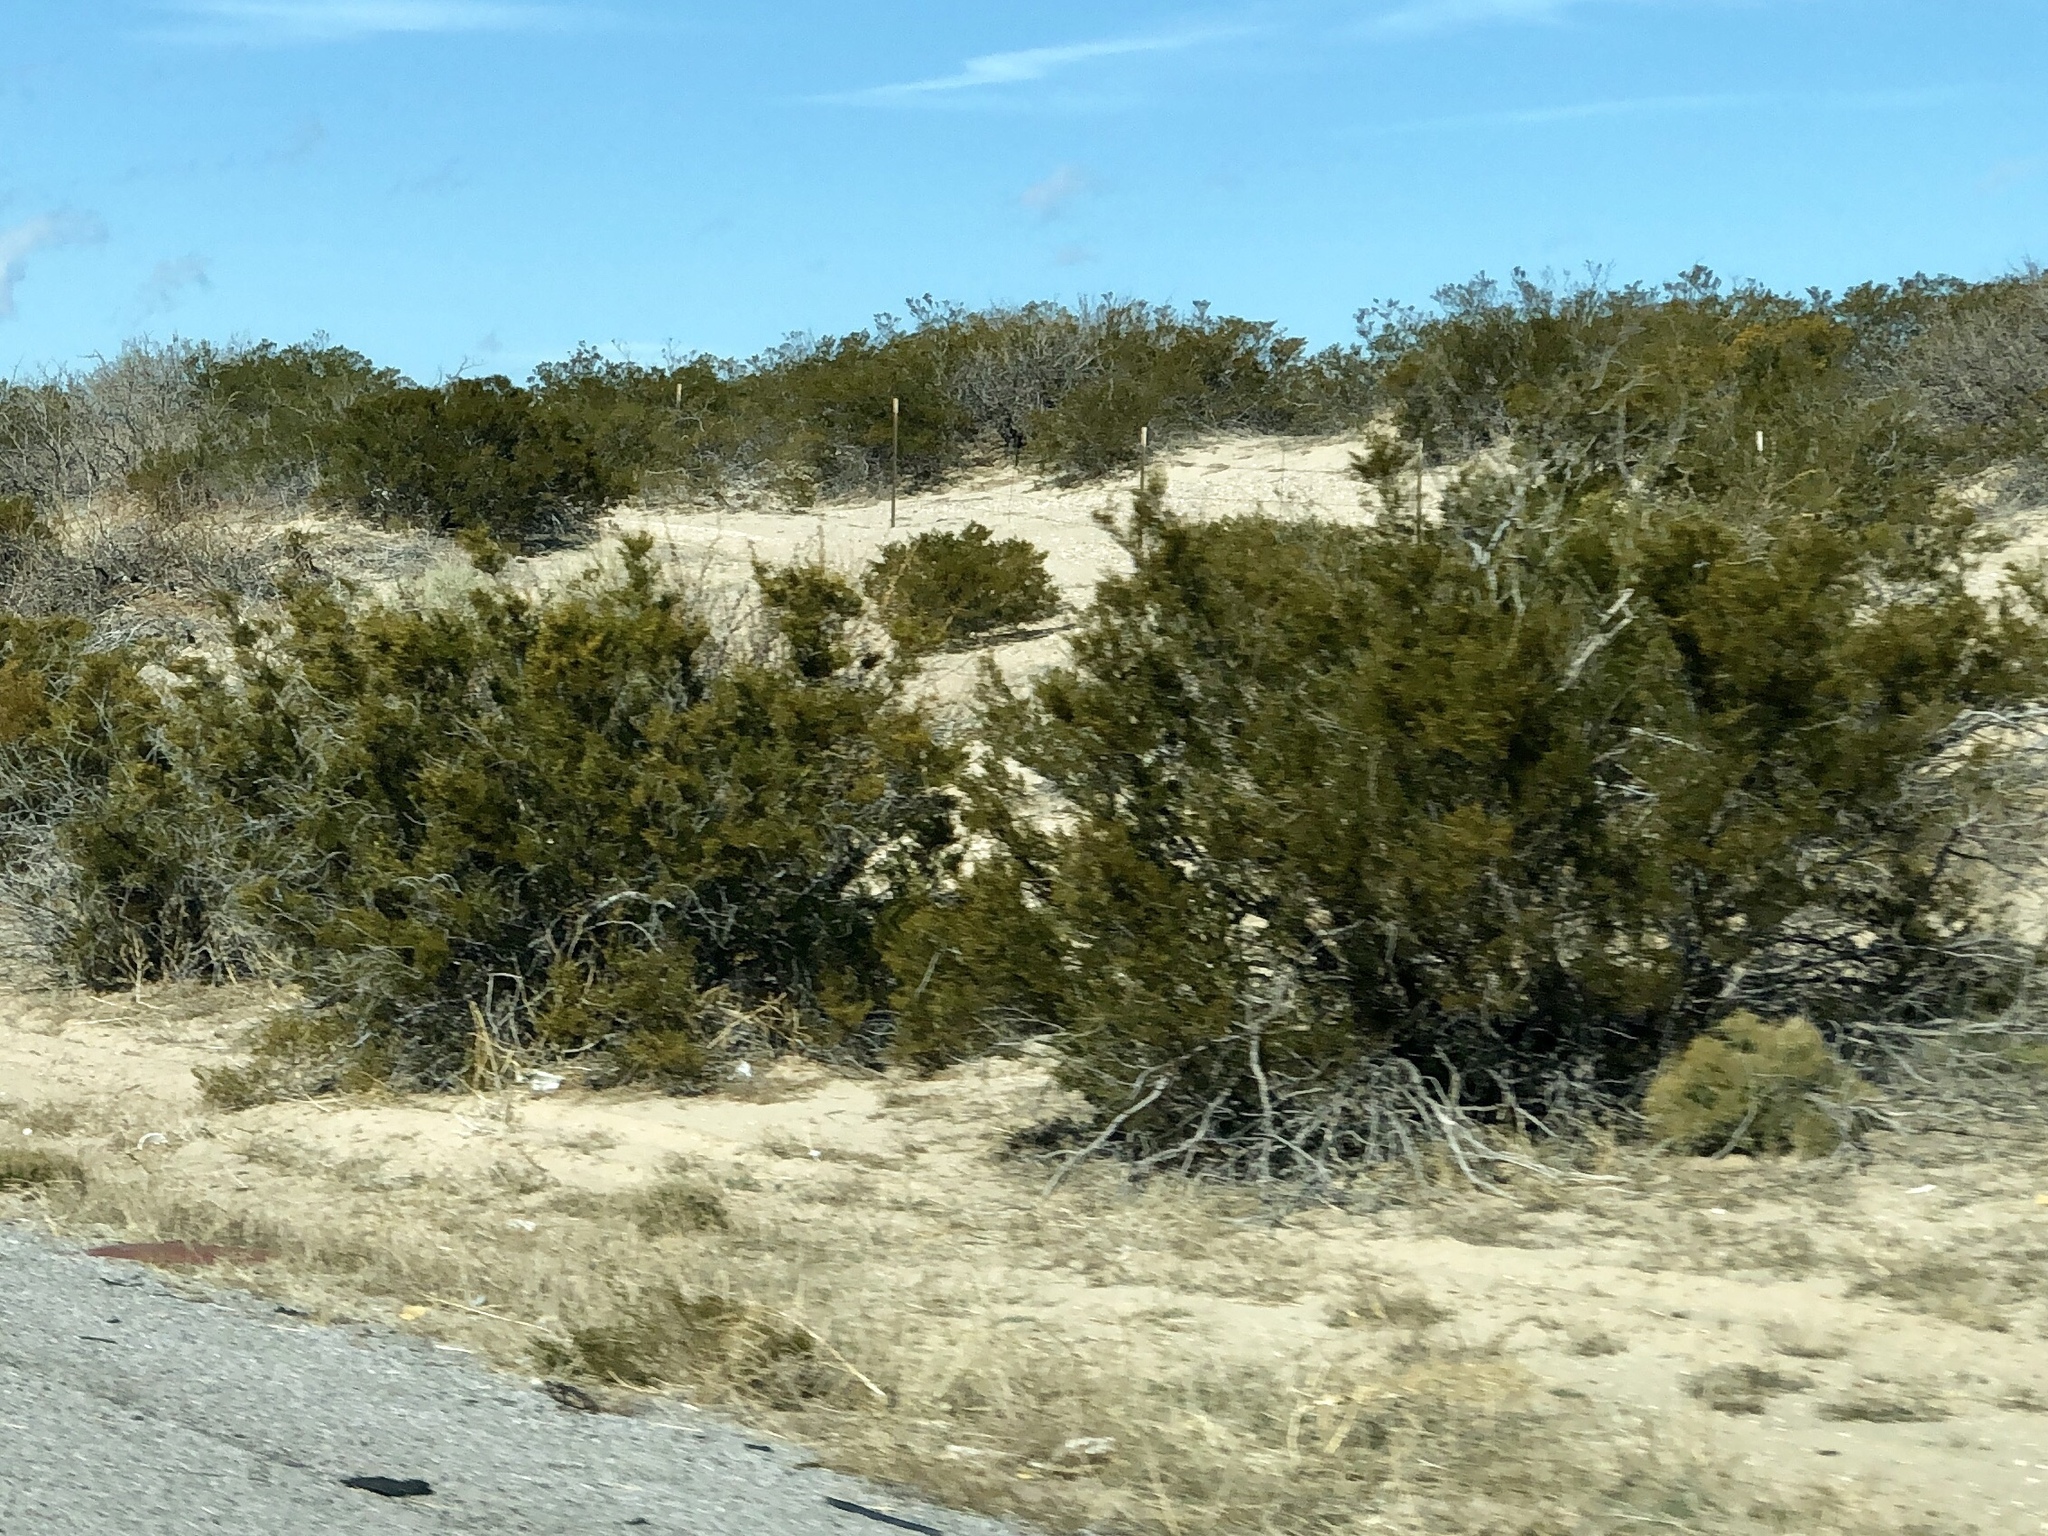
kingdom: Plantae
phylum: Tracheophyta
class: Magnoliopsida
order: Zygophyllales
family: Zygophyllaceae
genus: Larrea
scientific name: Larrea tridentata
